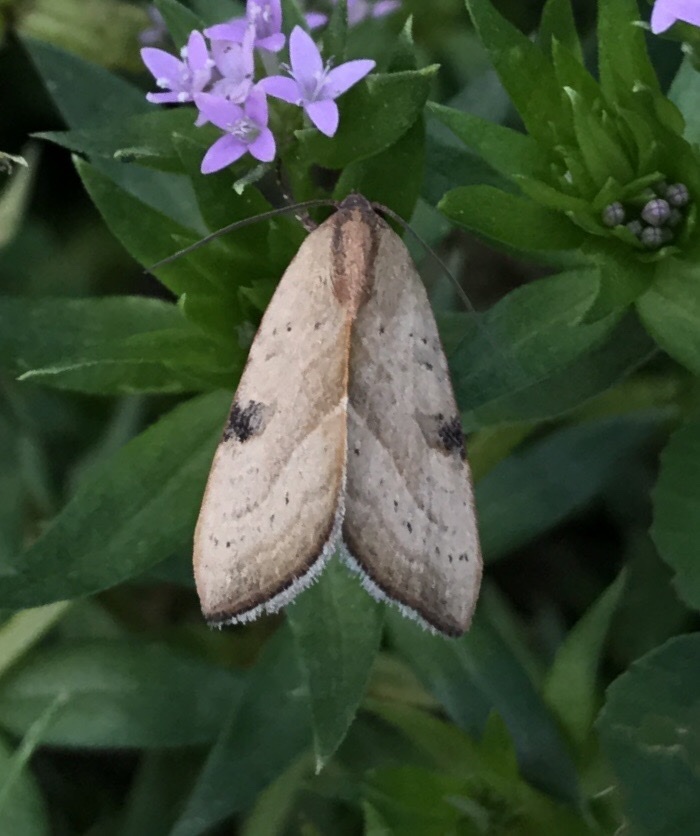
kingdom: Animalia
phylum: Arthropoda
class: Insecta
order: Lepidoptera
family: Noctuidae
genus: Galgula
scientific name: Galgula partita
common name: Wedgeling
